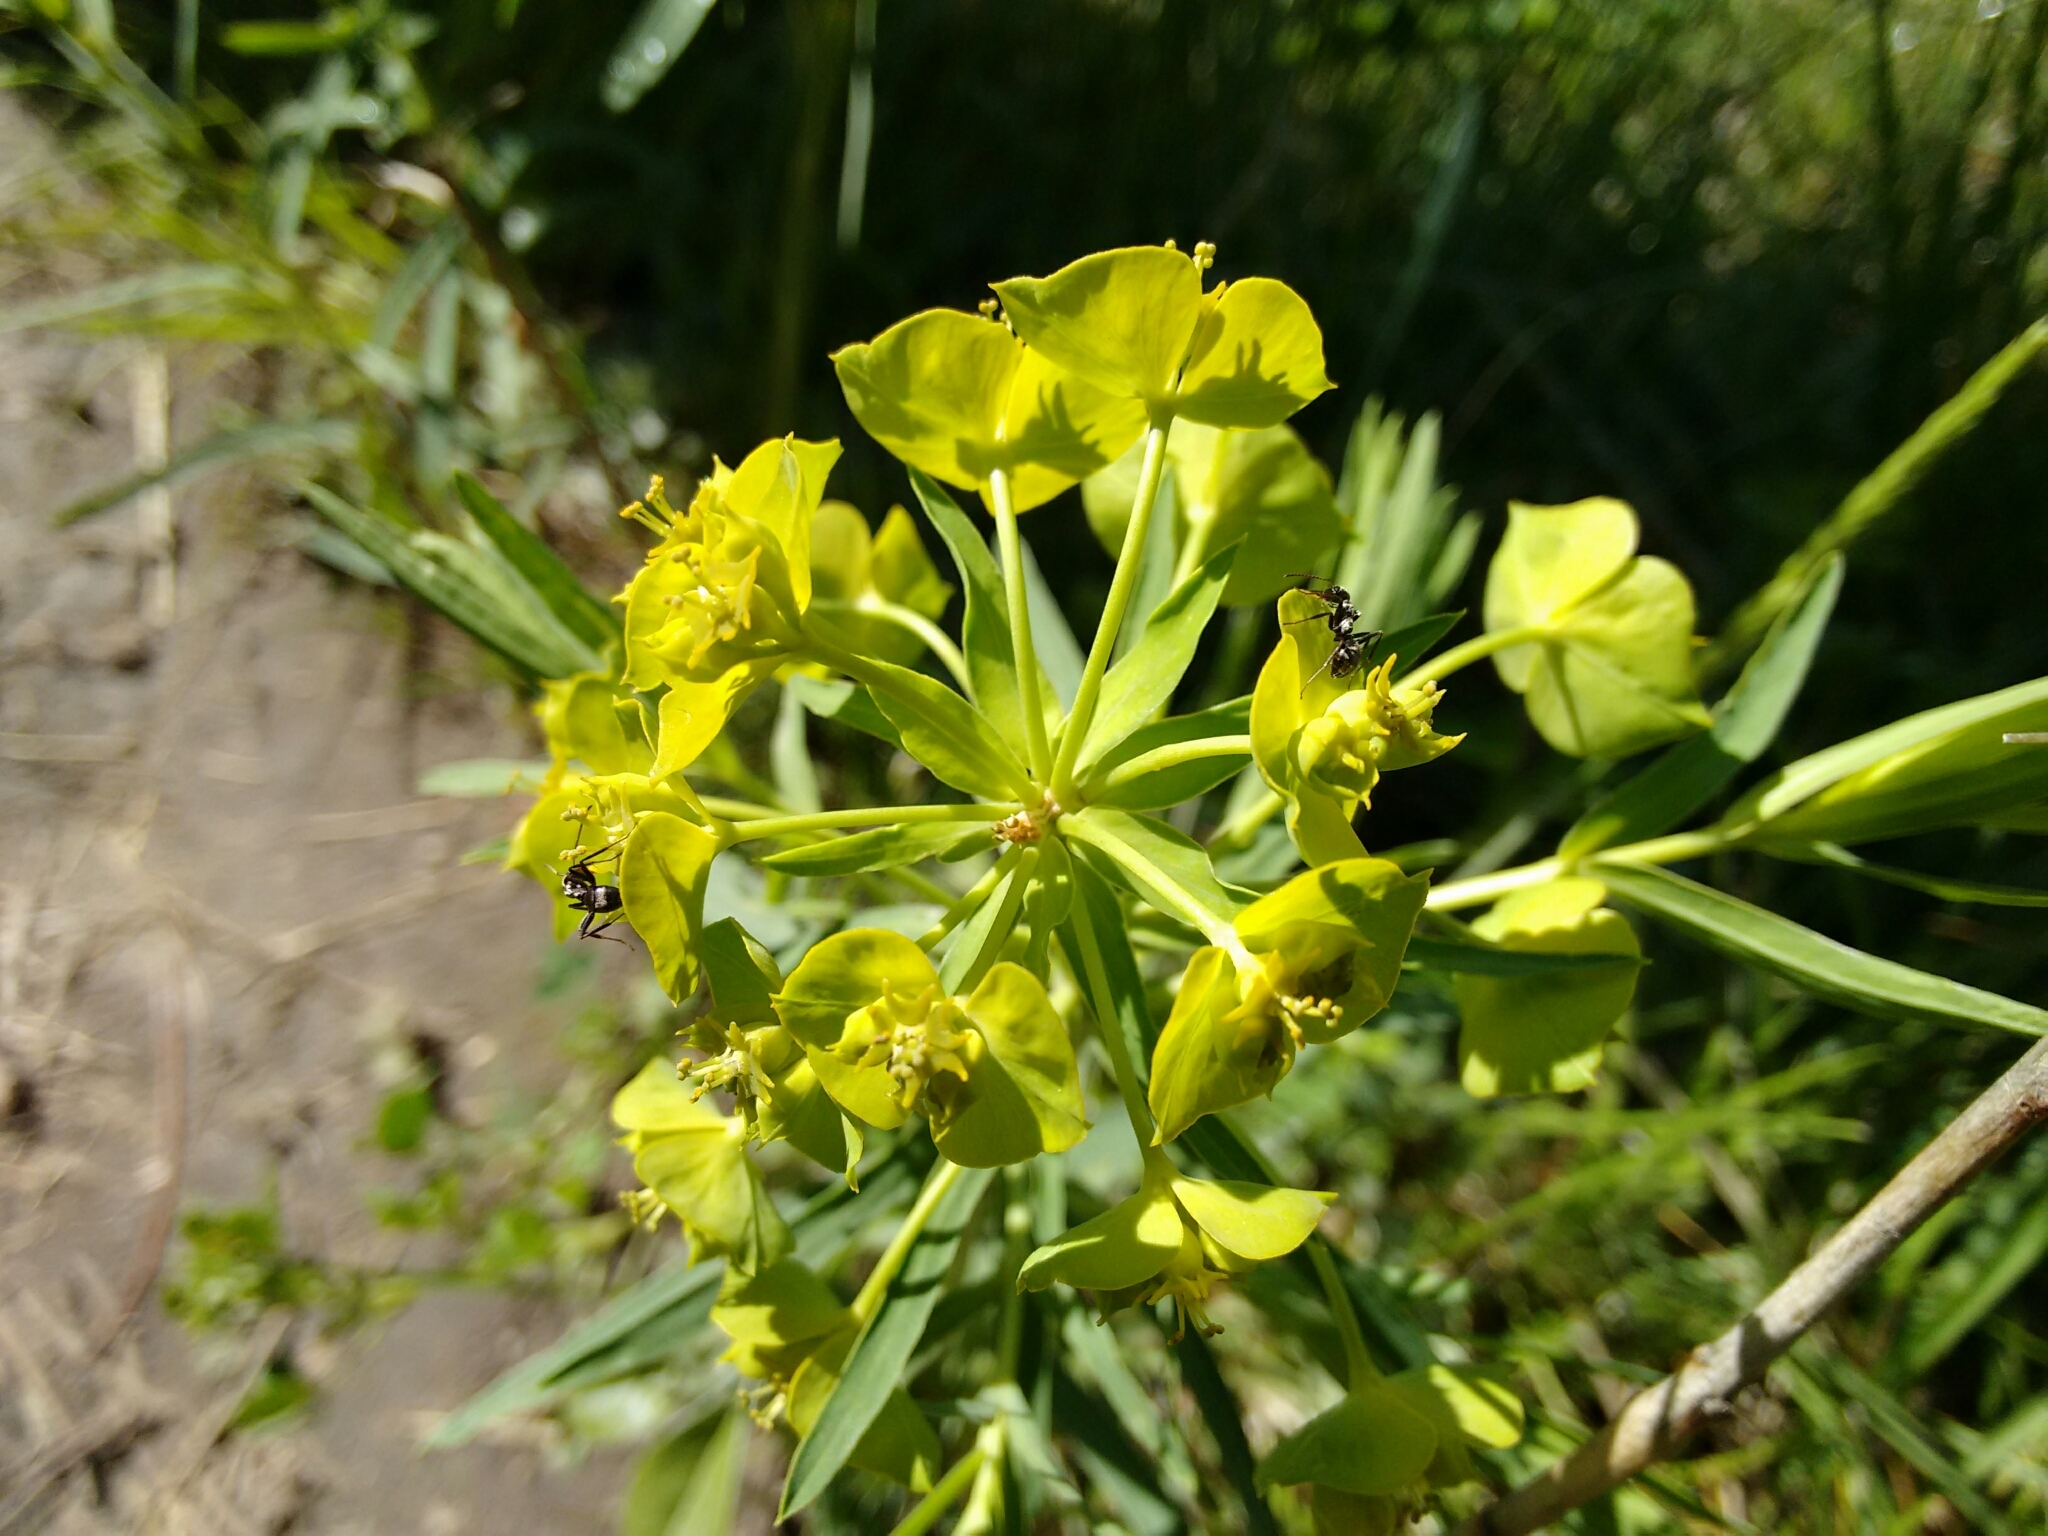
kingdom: Plantae
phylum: Tracheophyta
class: Magnoliopsida
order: Malpighiales
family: Euphorbiaceae
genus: Euphorbia
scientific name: Euphorbia virgata
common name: Leafy spurge
